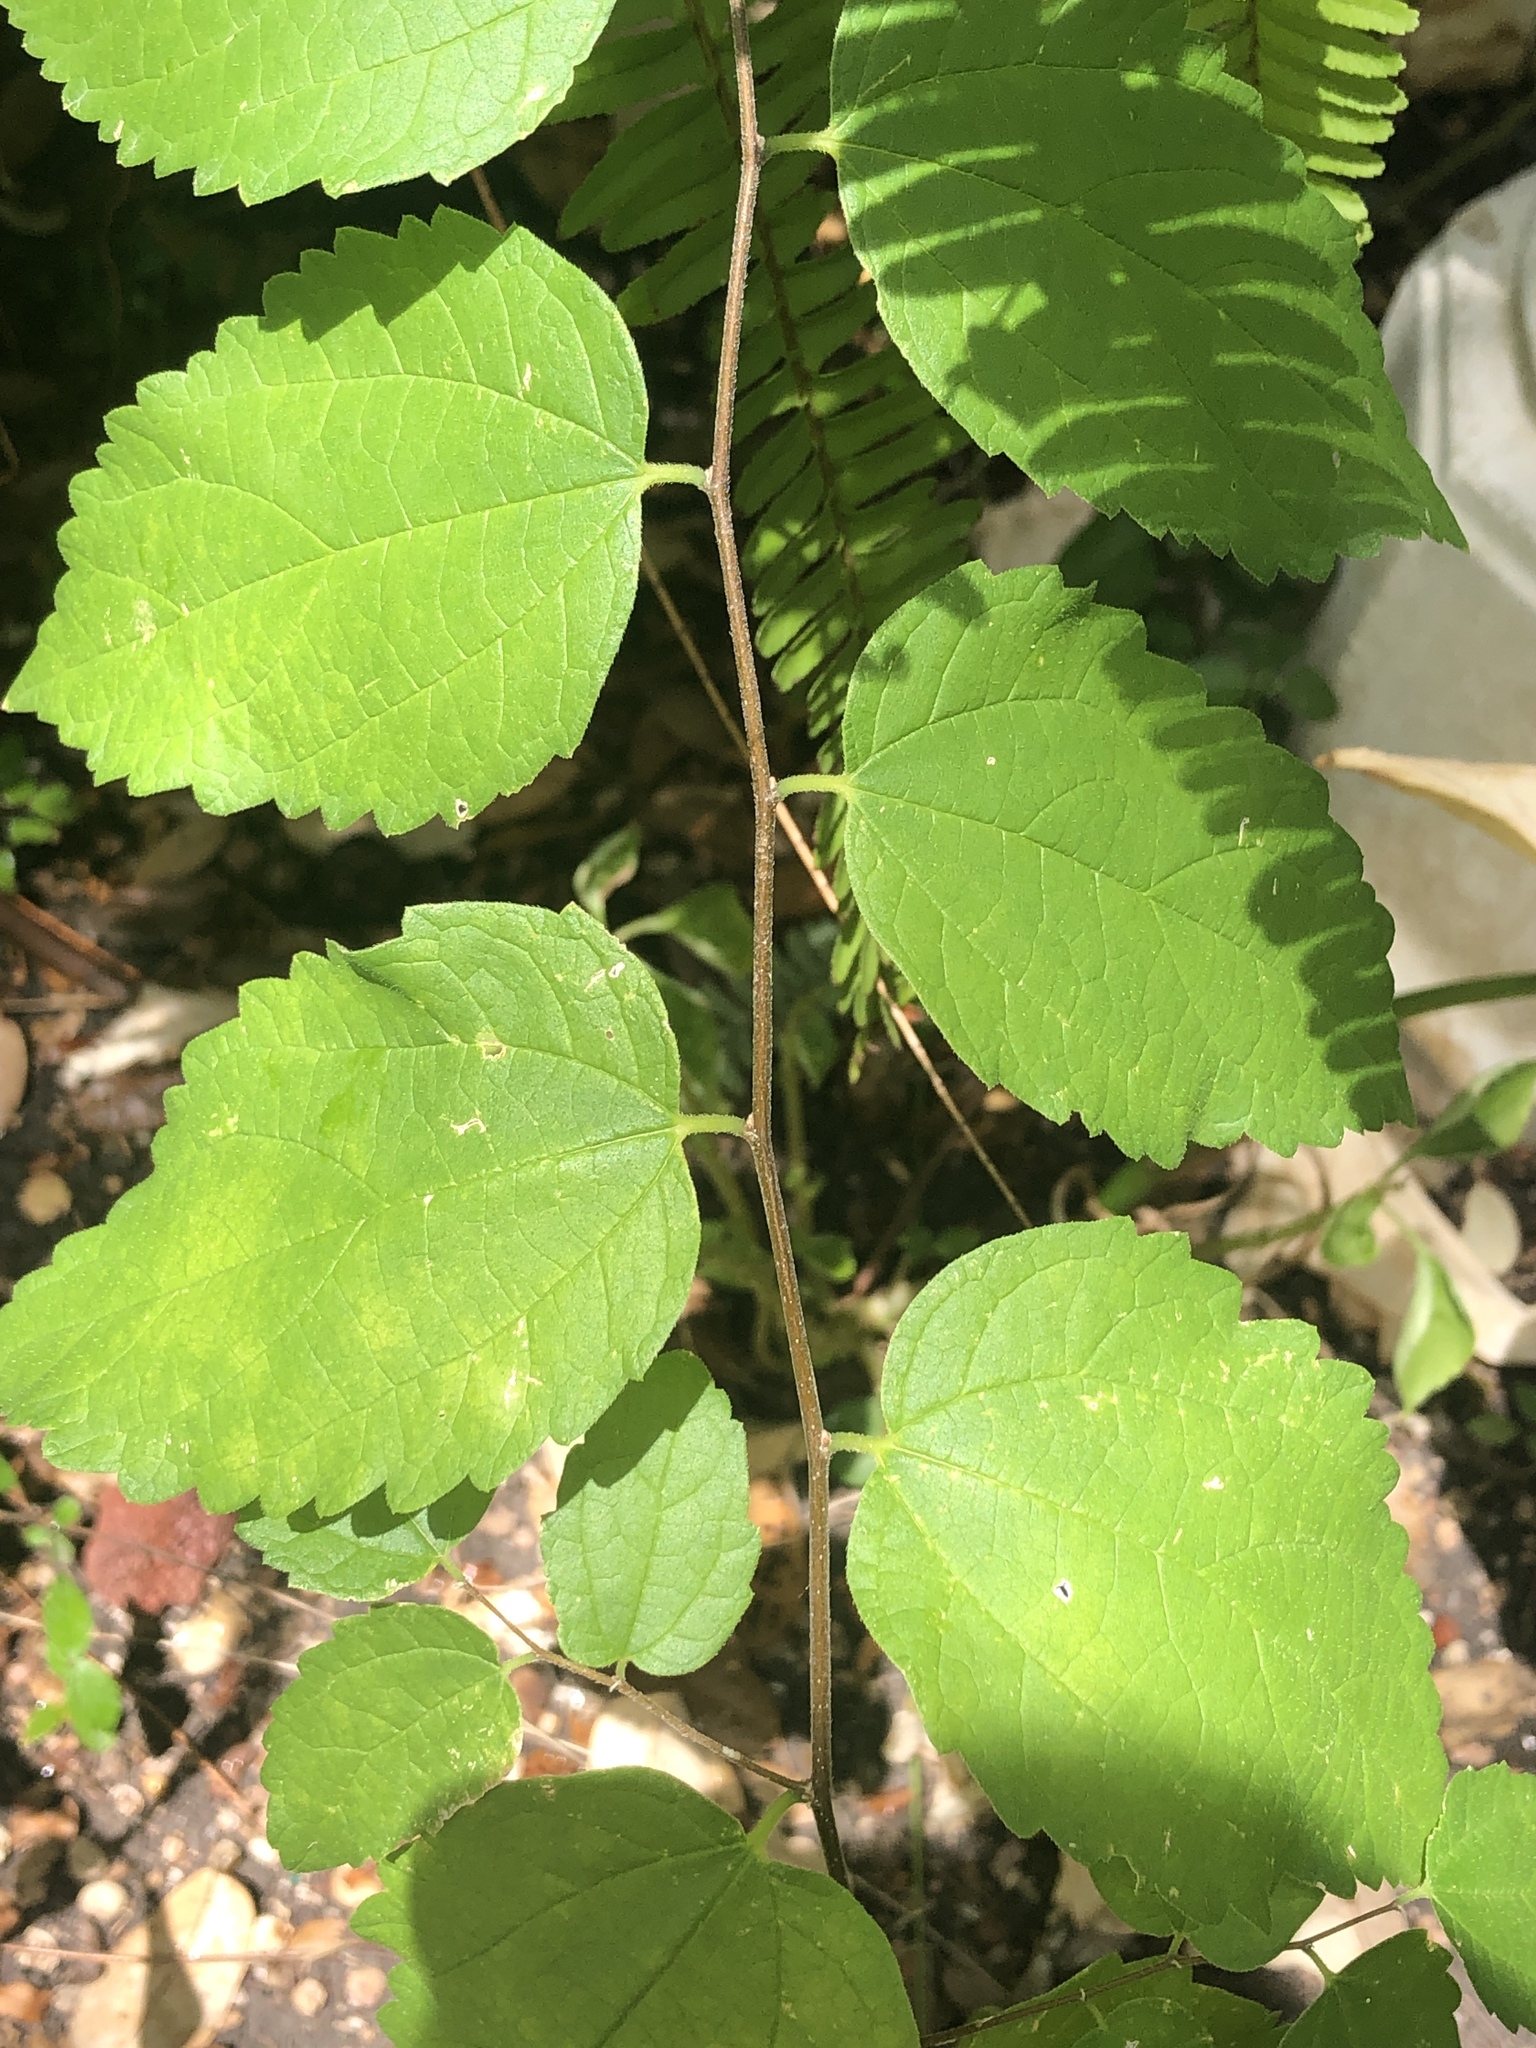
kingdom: Plantae
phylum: Tracheophyta
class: Magnoliopsida
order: Rosales
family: Cannabaceae
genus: Celtis
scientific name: Celtis laevigata
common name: Sugarberry
